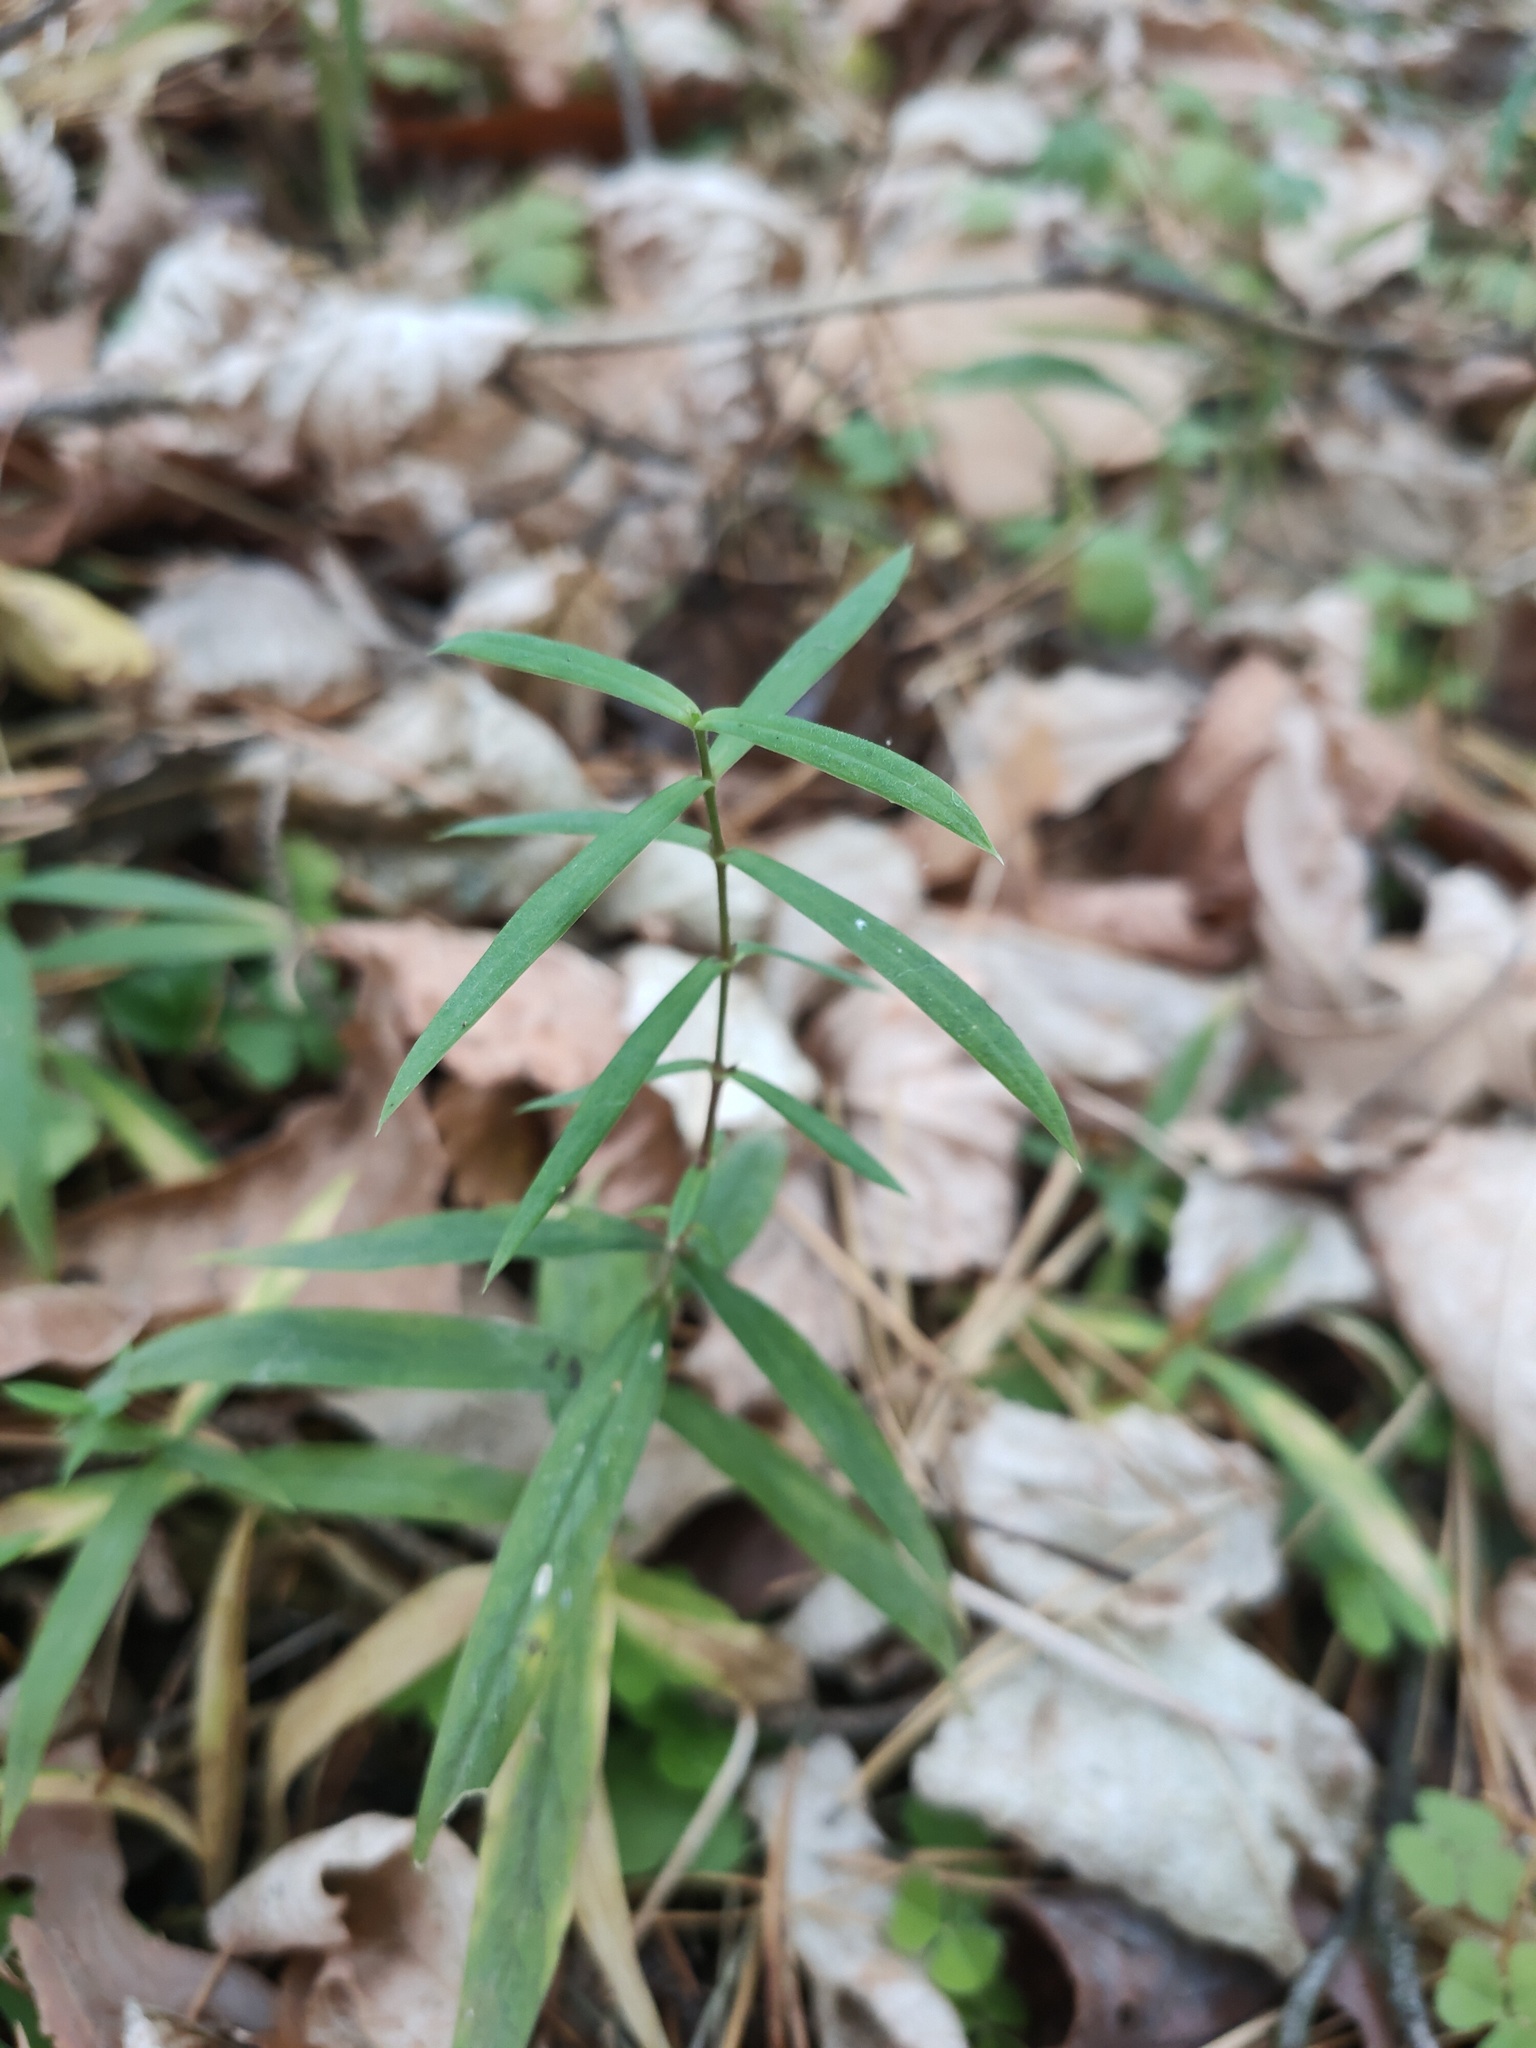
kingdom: Plantae
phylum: Tracheophyta
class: Magnoliopsida
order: Caryophyllales
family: Caryophyllaceae
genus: Rabelera
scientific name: Rabelera holostea
